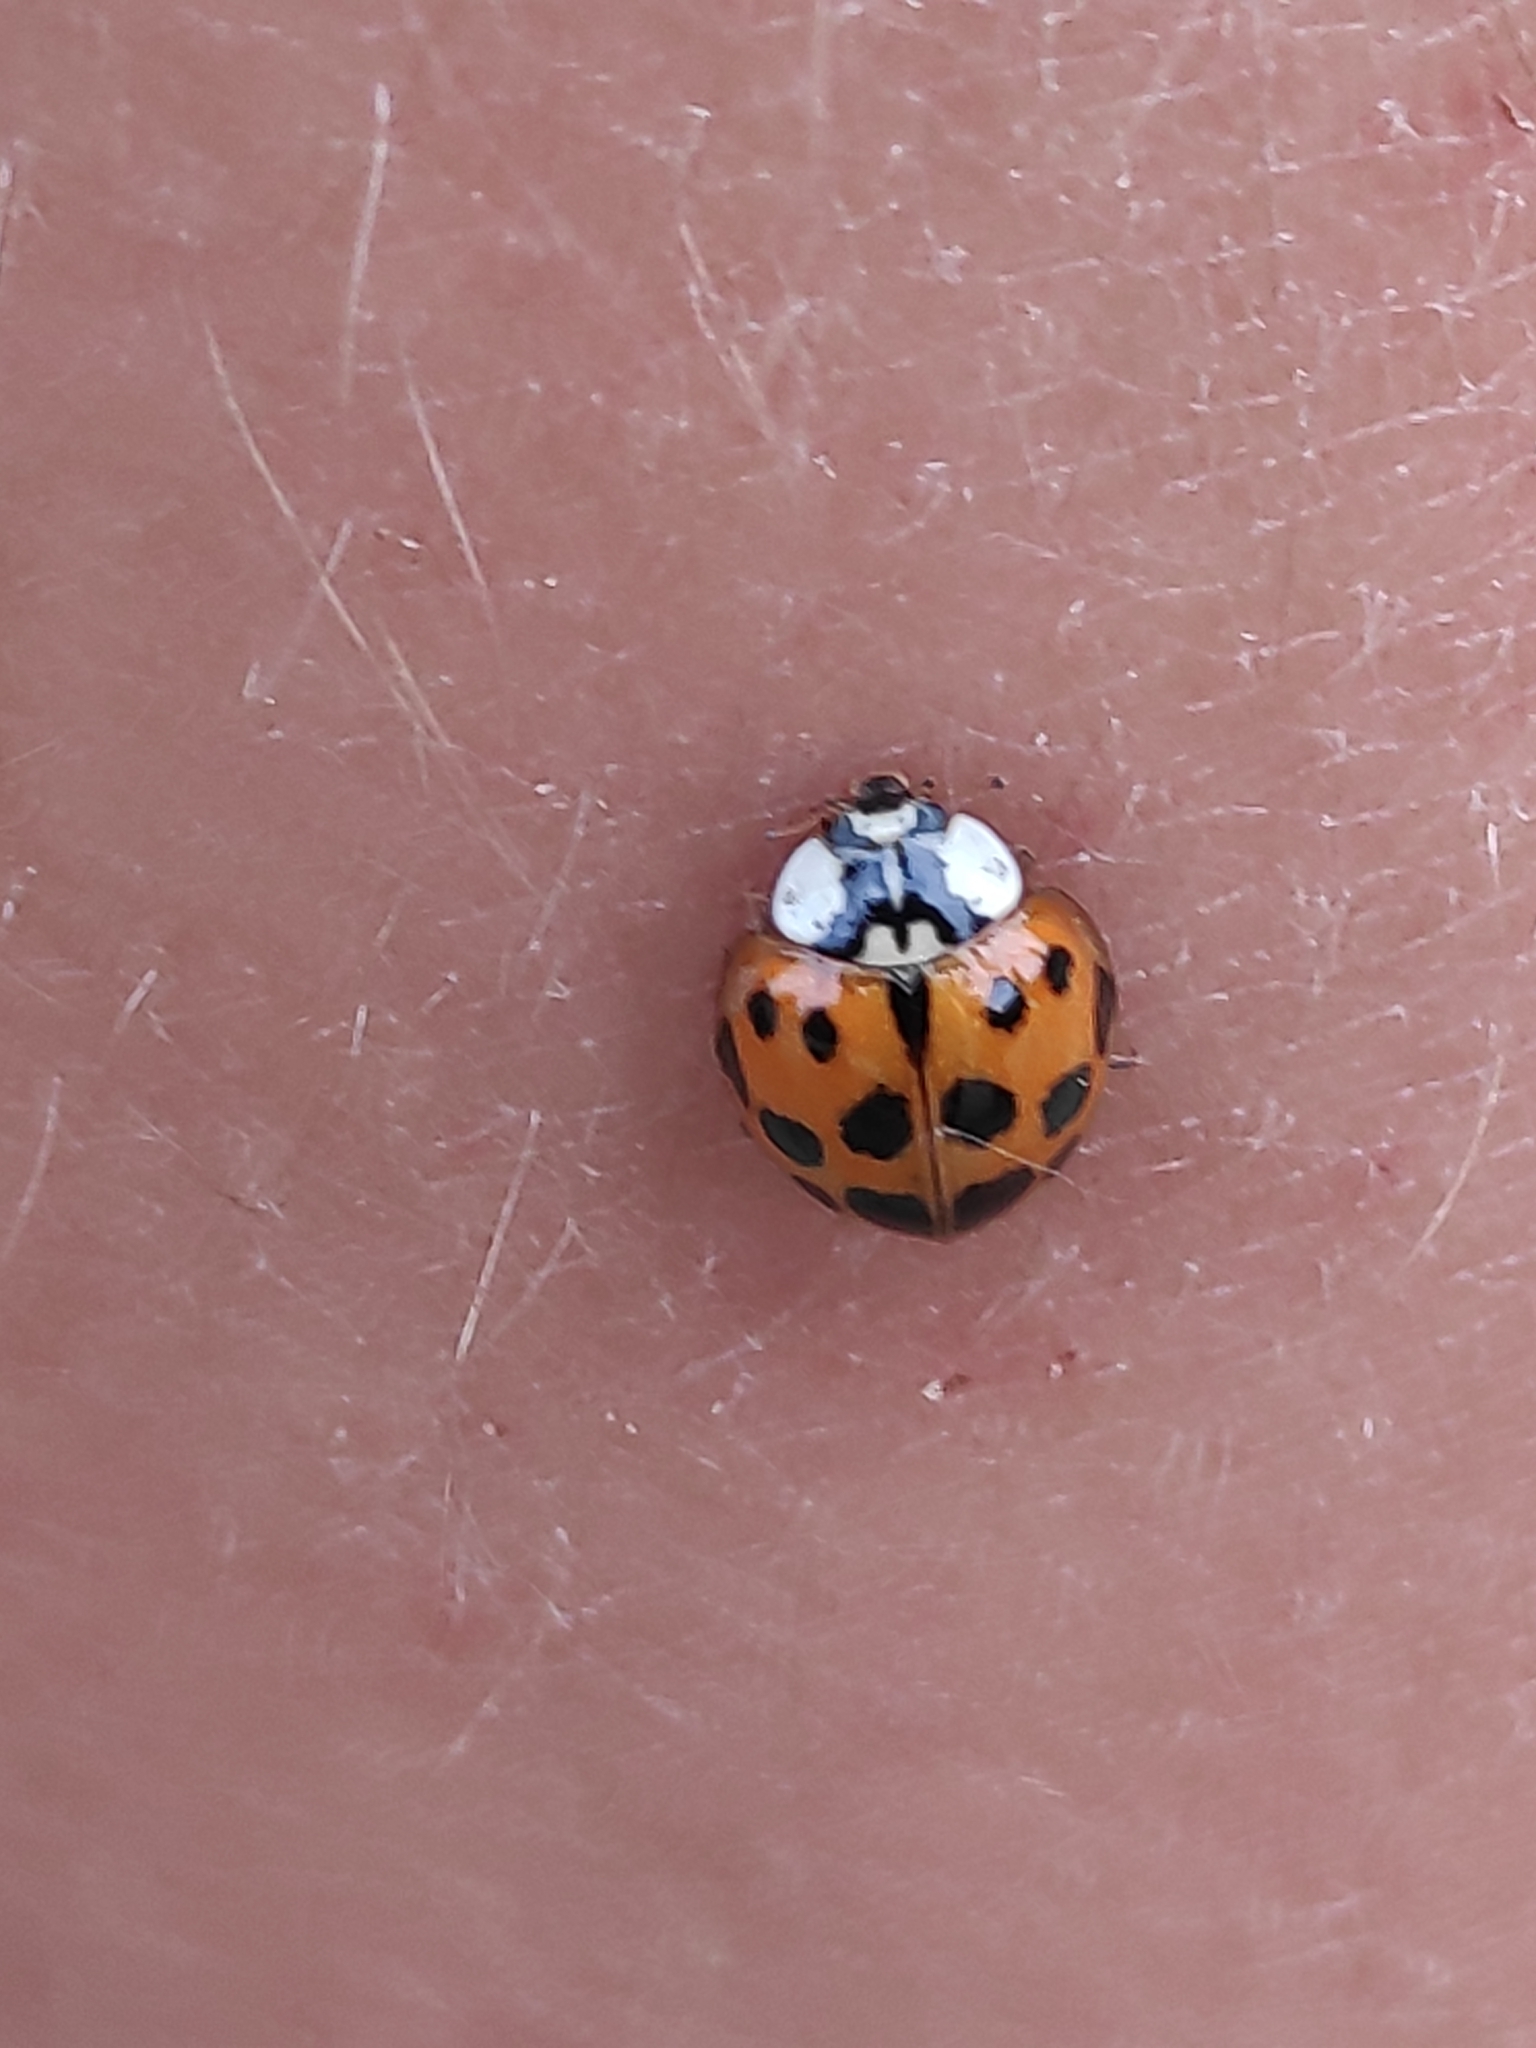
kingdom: Animalia
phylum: Arthropoda
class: Insecta
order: Coleoptera
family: Coccinellidae
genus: Harmonia
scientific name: Harmonia axyridis
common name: Harlequin ladybird
